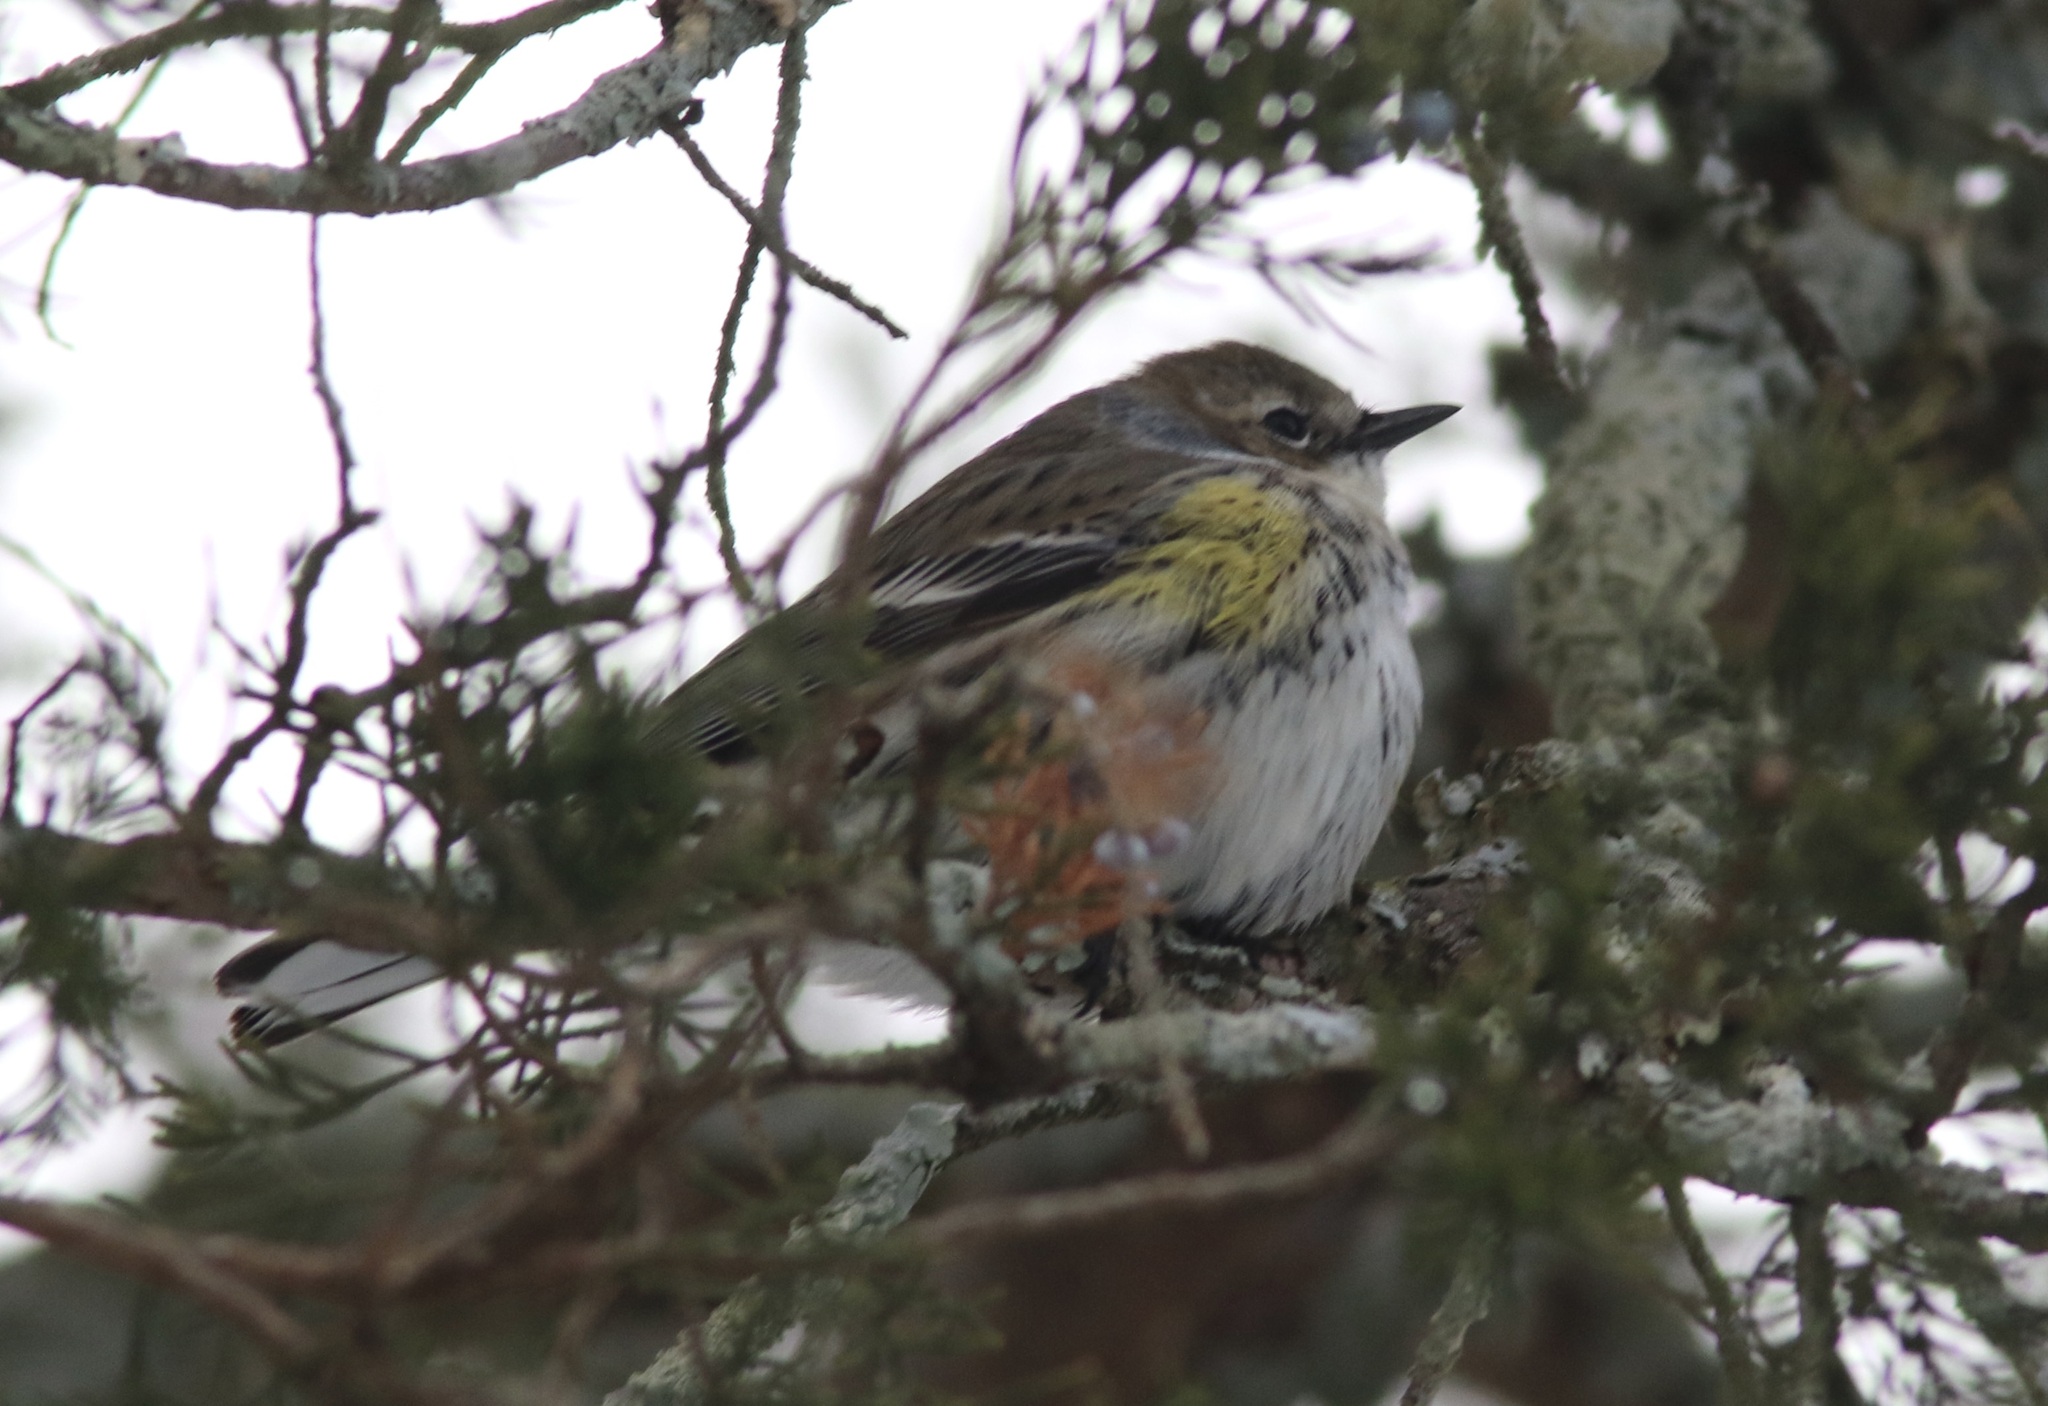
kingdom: Animalia
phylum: Chordata
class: Aves
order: Passeriformes
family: Parulidae
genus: Setophaga
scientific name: Setophaga coronata
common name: Myrtle warbler
